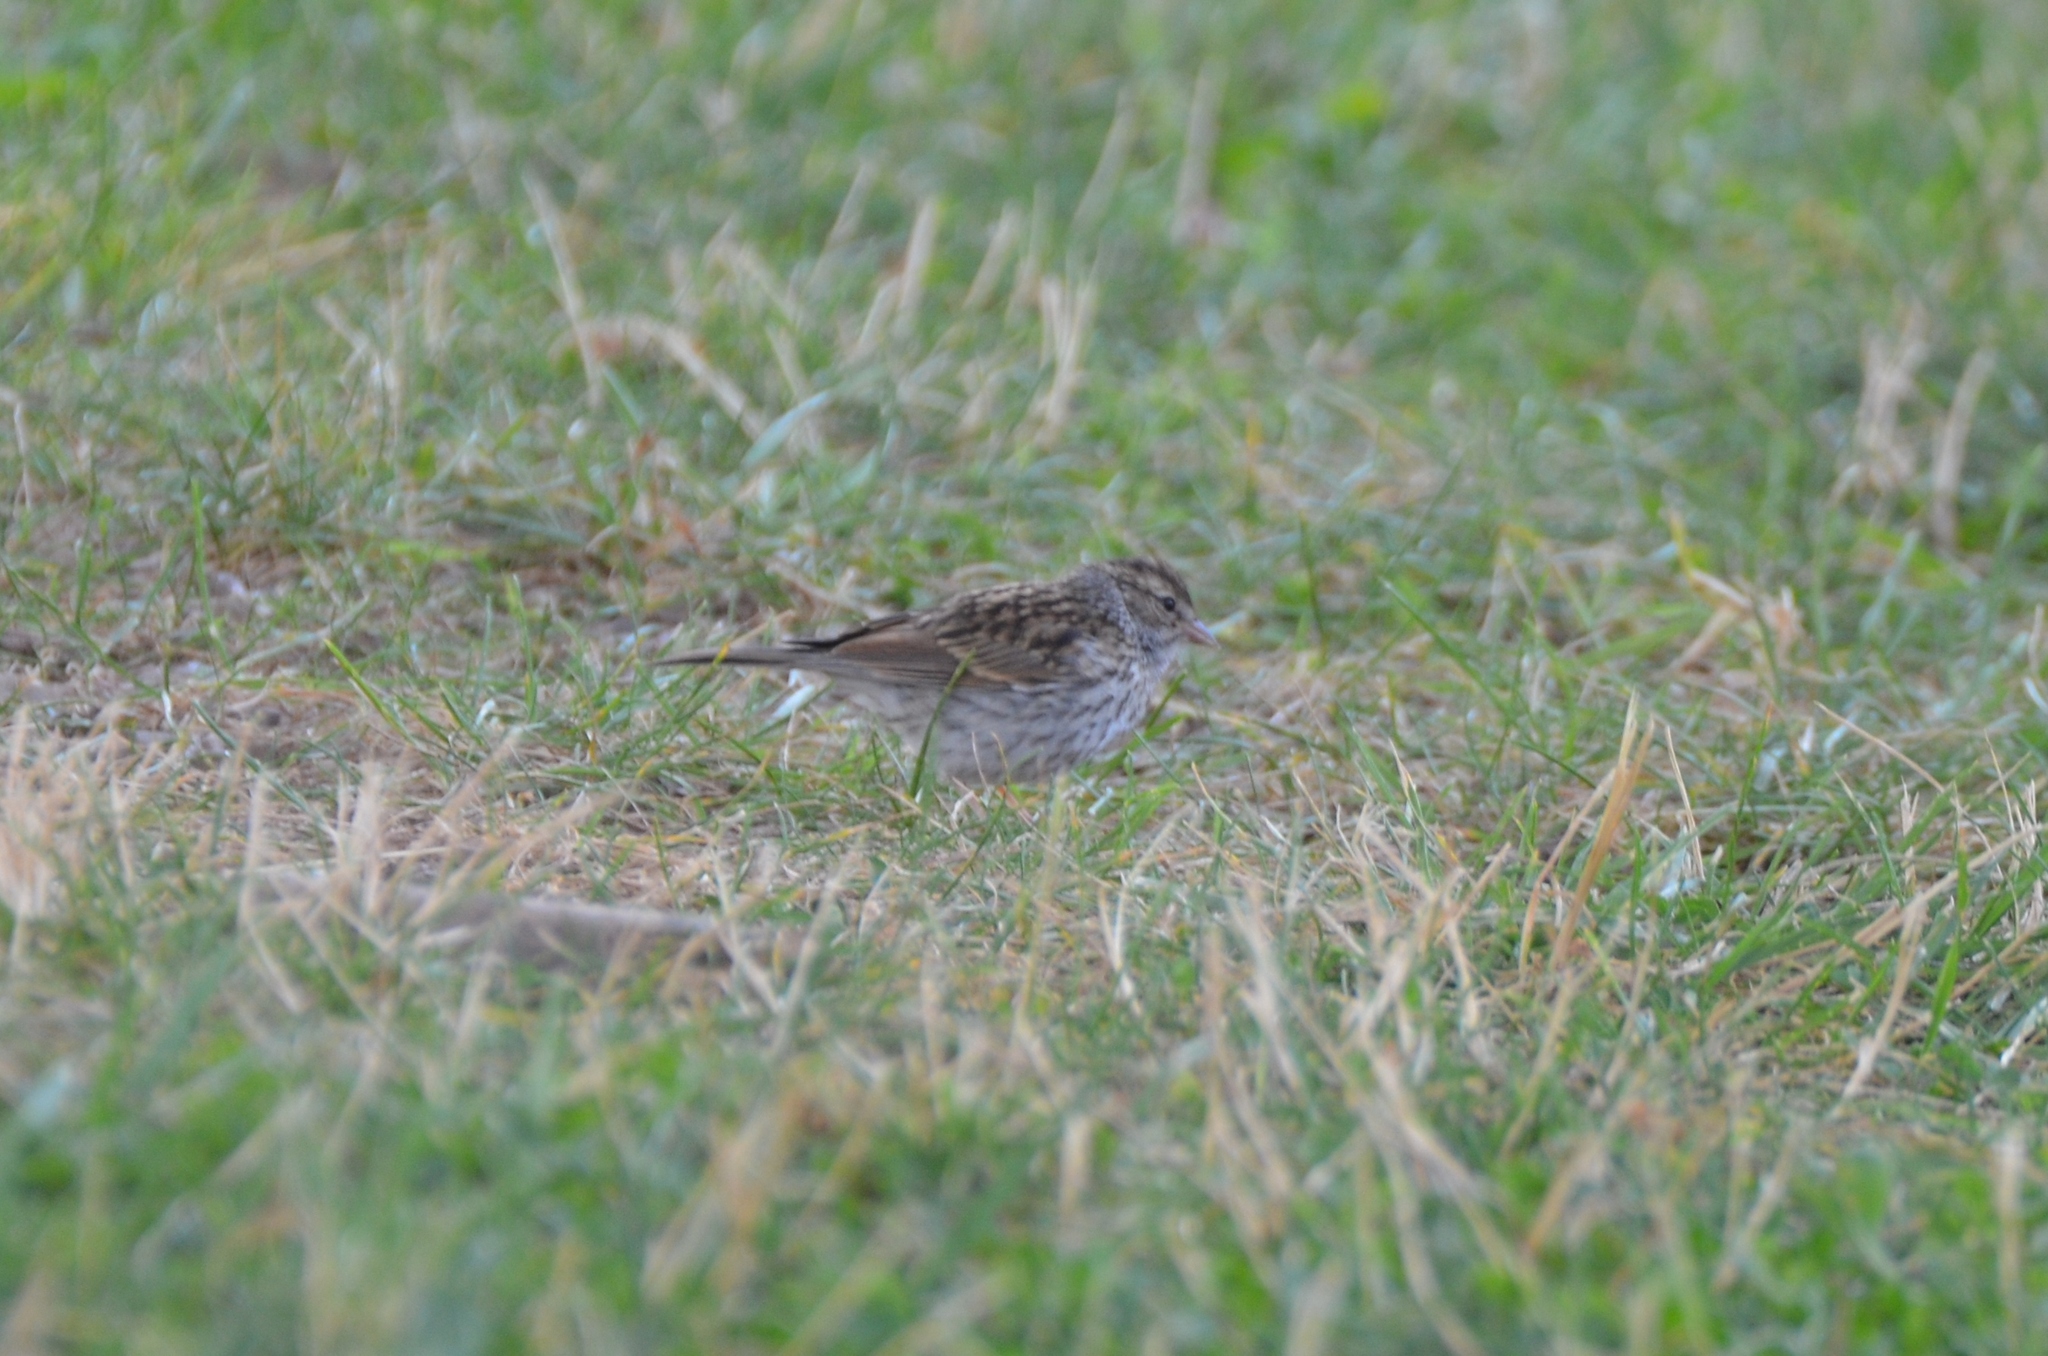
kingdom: Animalia
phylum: Chordata
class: Aves
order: Passeriformes
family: Passerellidae
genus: Spizella
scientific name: Spizella passerina
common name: Chipping sparrow
